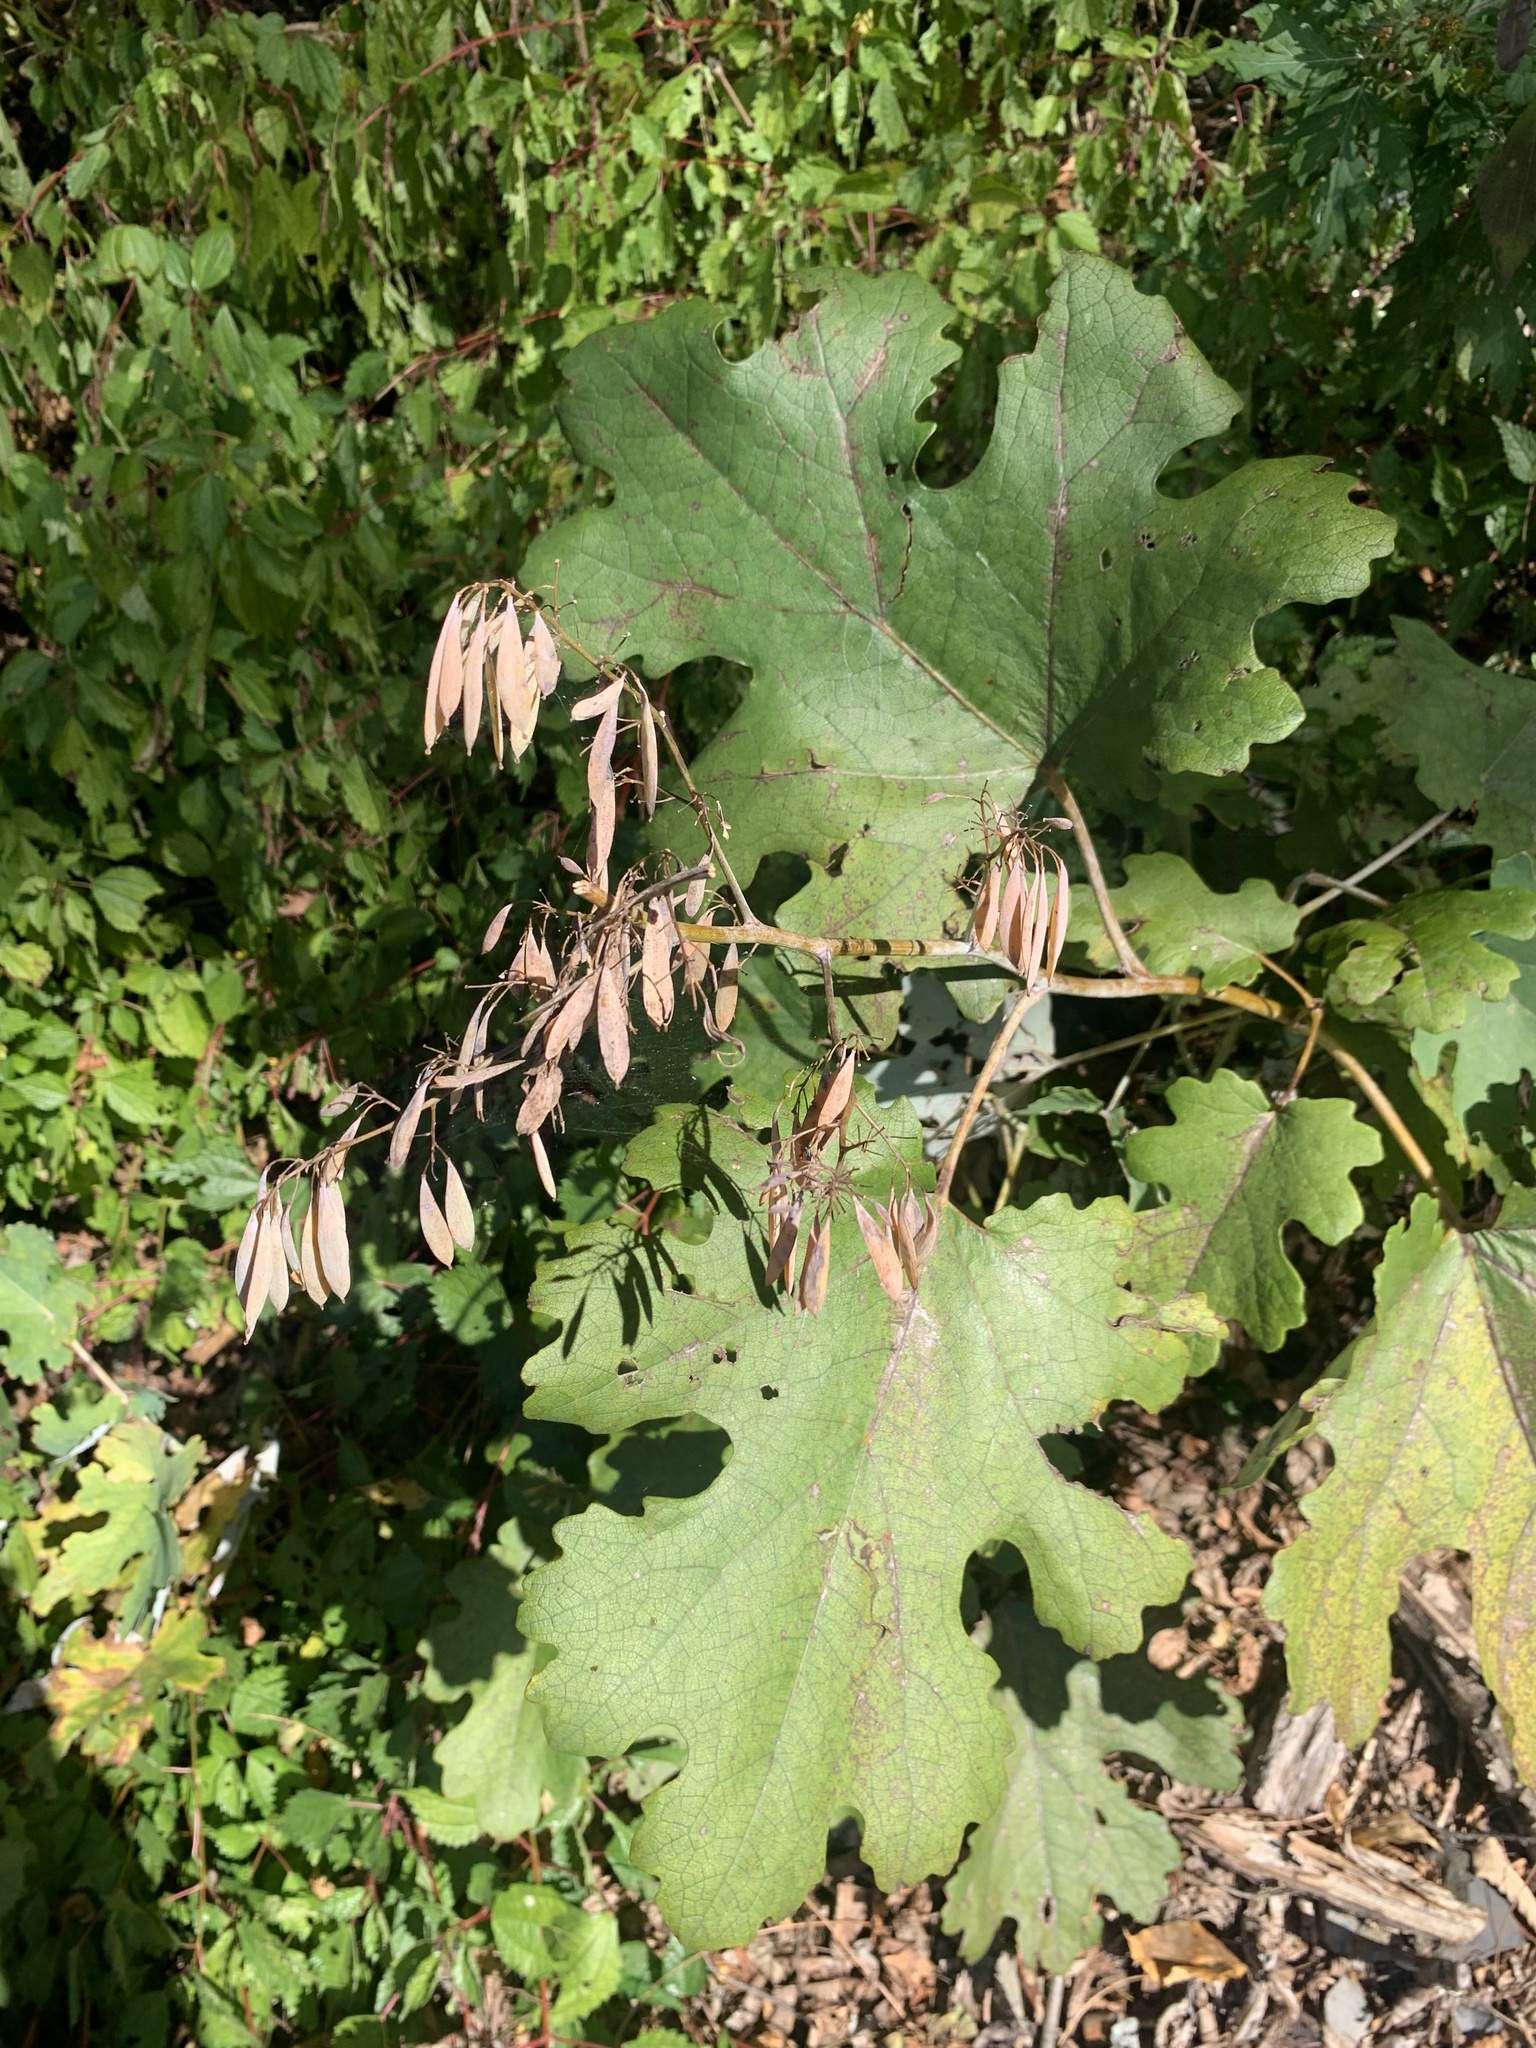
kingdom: Plantae
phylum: Tracheophyta
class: Magnoliopsida
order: Ranunculales
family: Papaveraceae
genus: Macleaya
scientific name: Macleaya cordata
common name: Plume poppy
